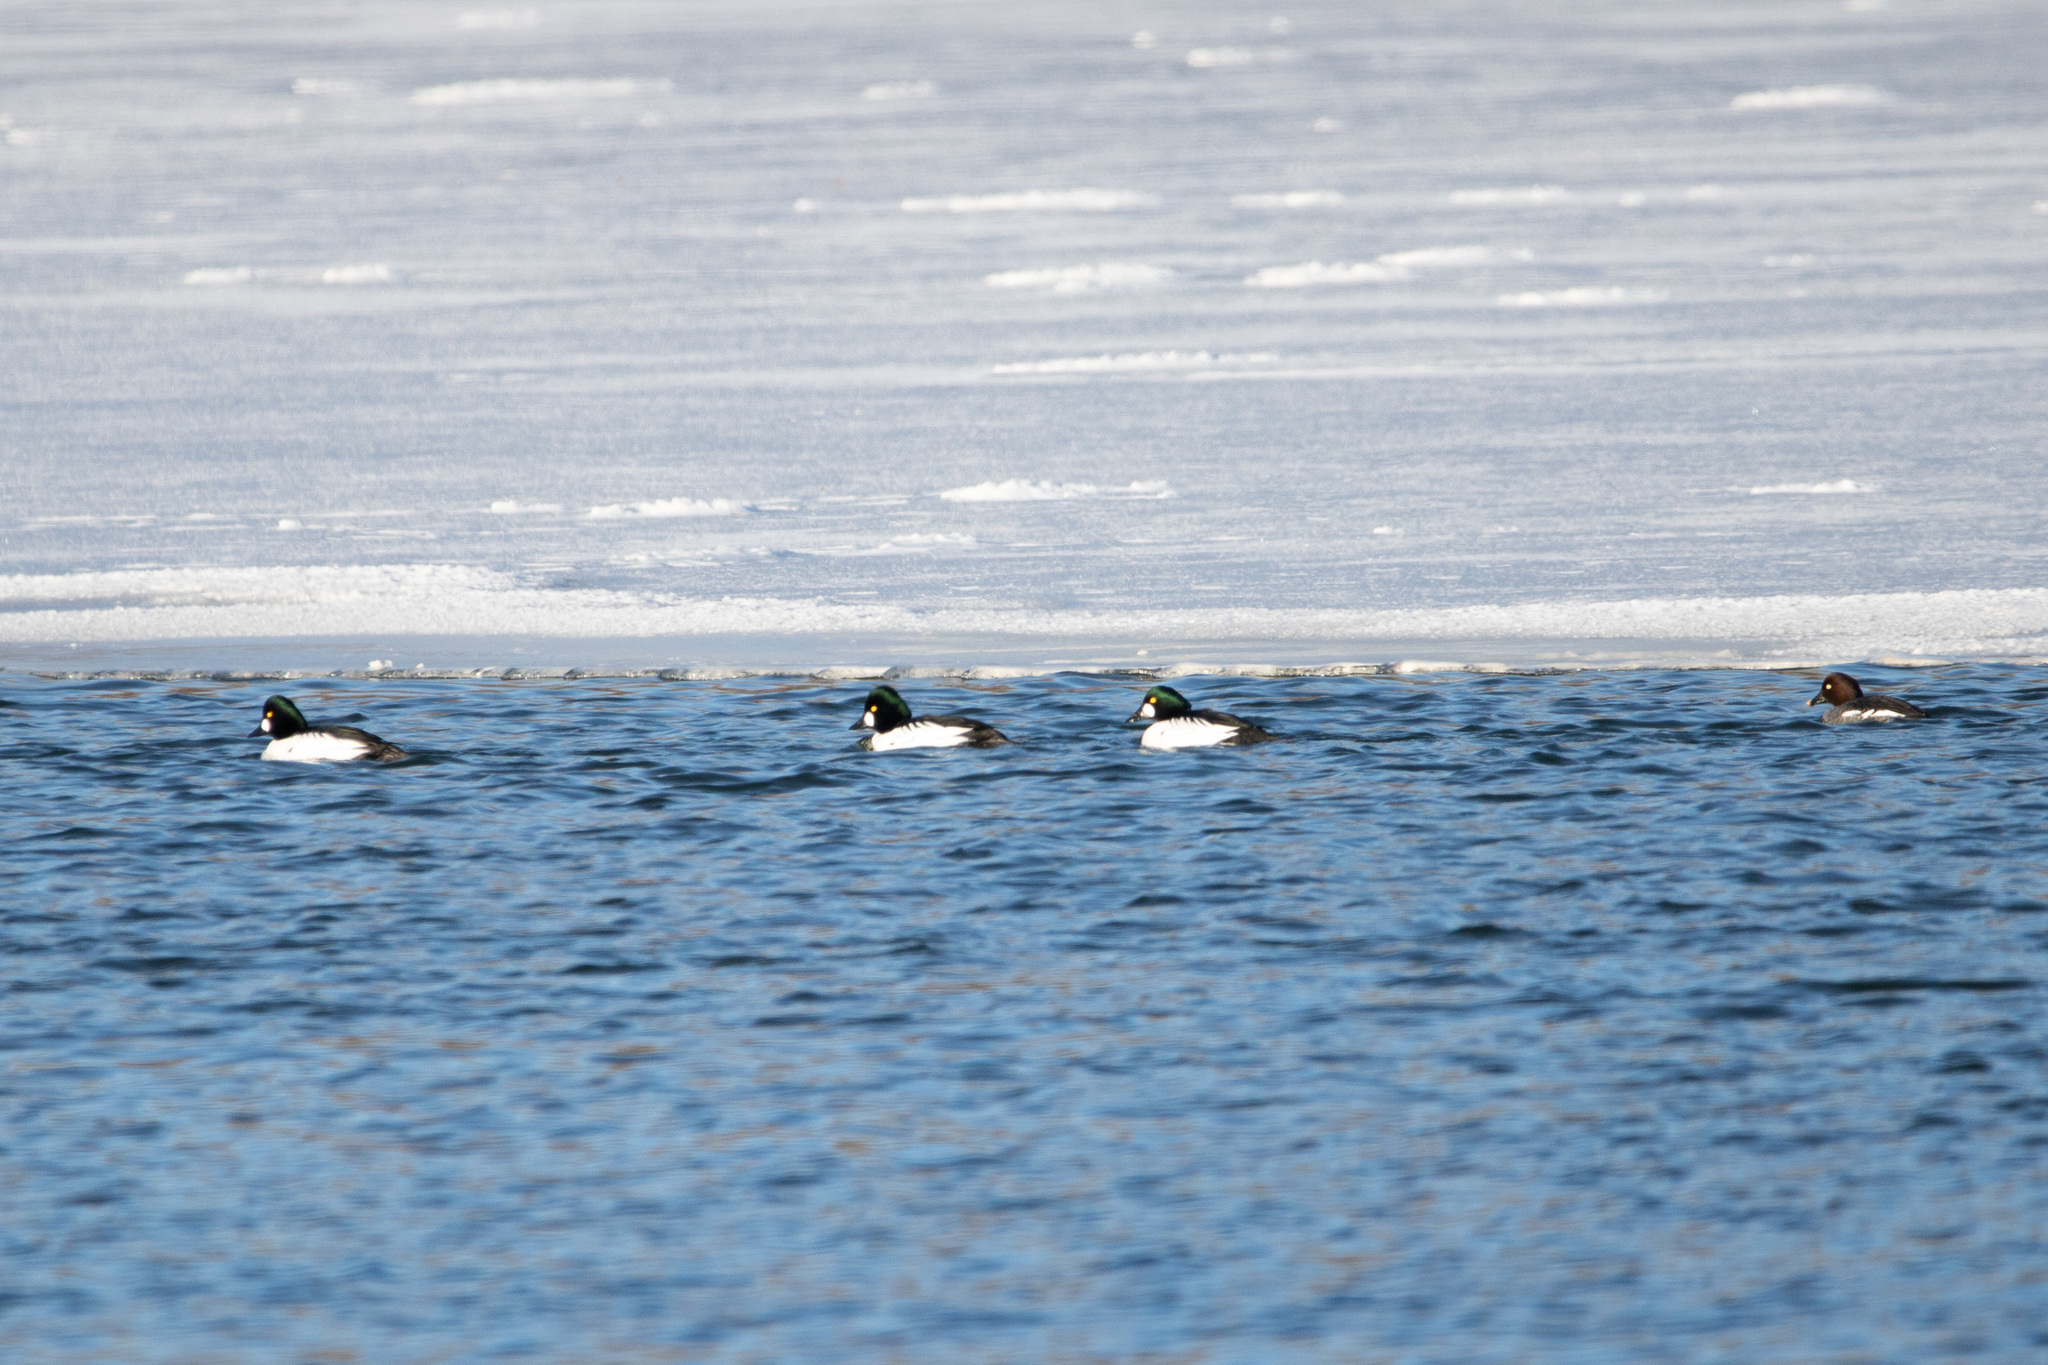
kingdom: Animalia
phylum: Chordata
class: Aves
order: Anseriformes
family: Anatidae
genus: Bucephala
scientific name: Bucephala clangula
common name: Common goldeneye
